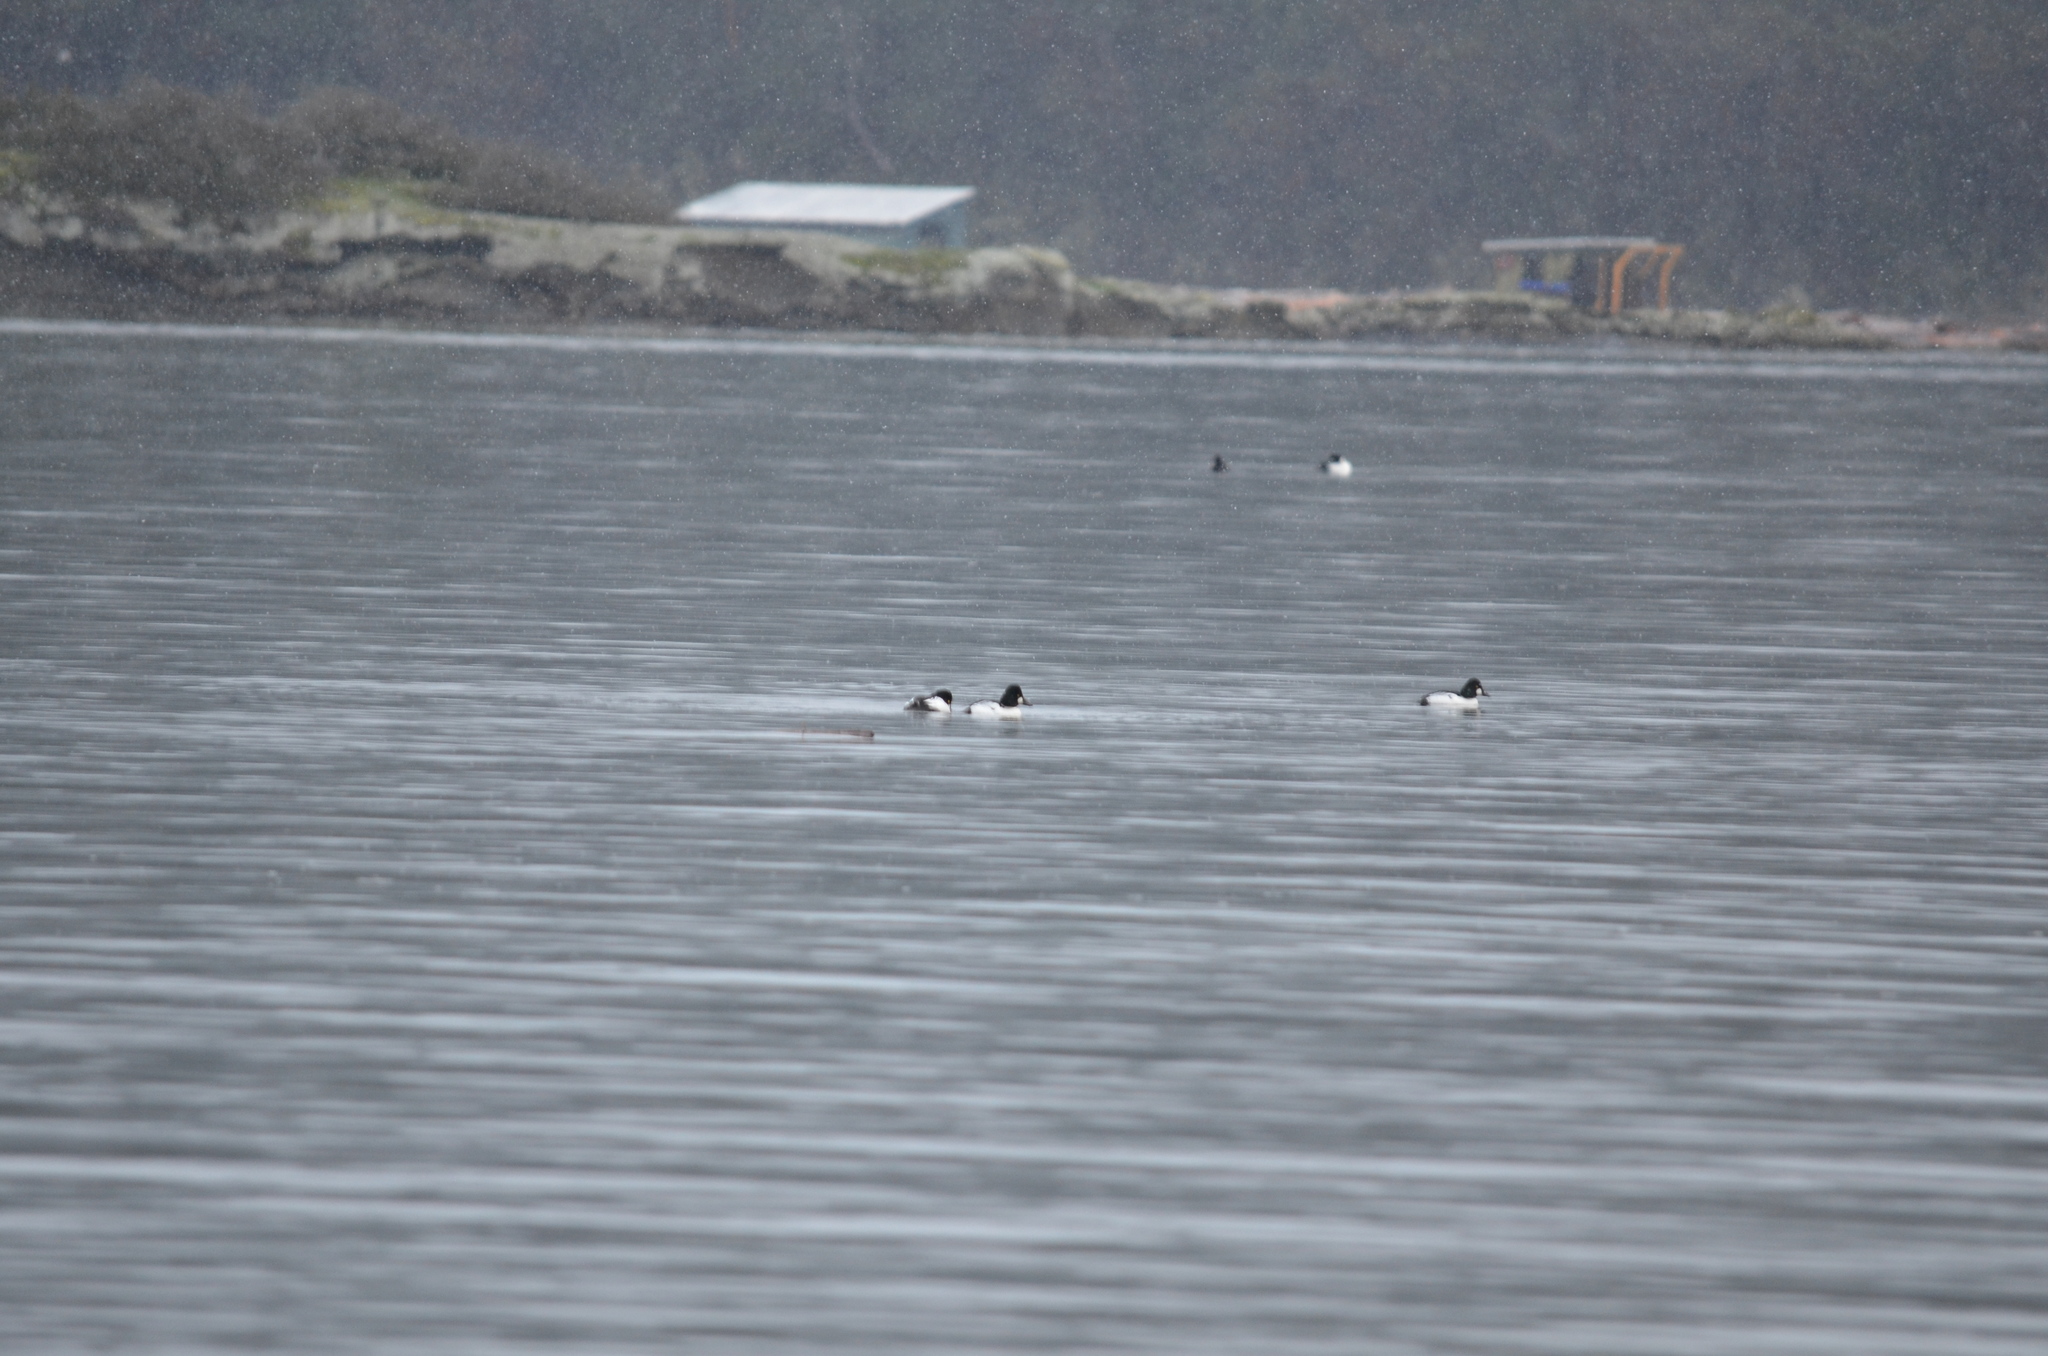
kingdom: Animalia
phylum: Chordata
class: Aves
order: Anseriformes
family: Anatidae
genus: Bucephala
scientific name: Bucephala clangula
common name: Common goldeneye
